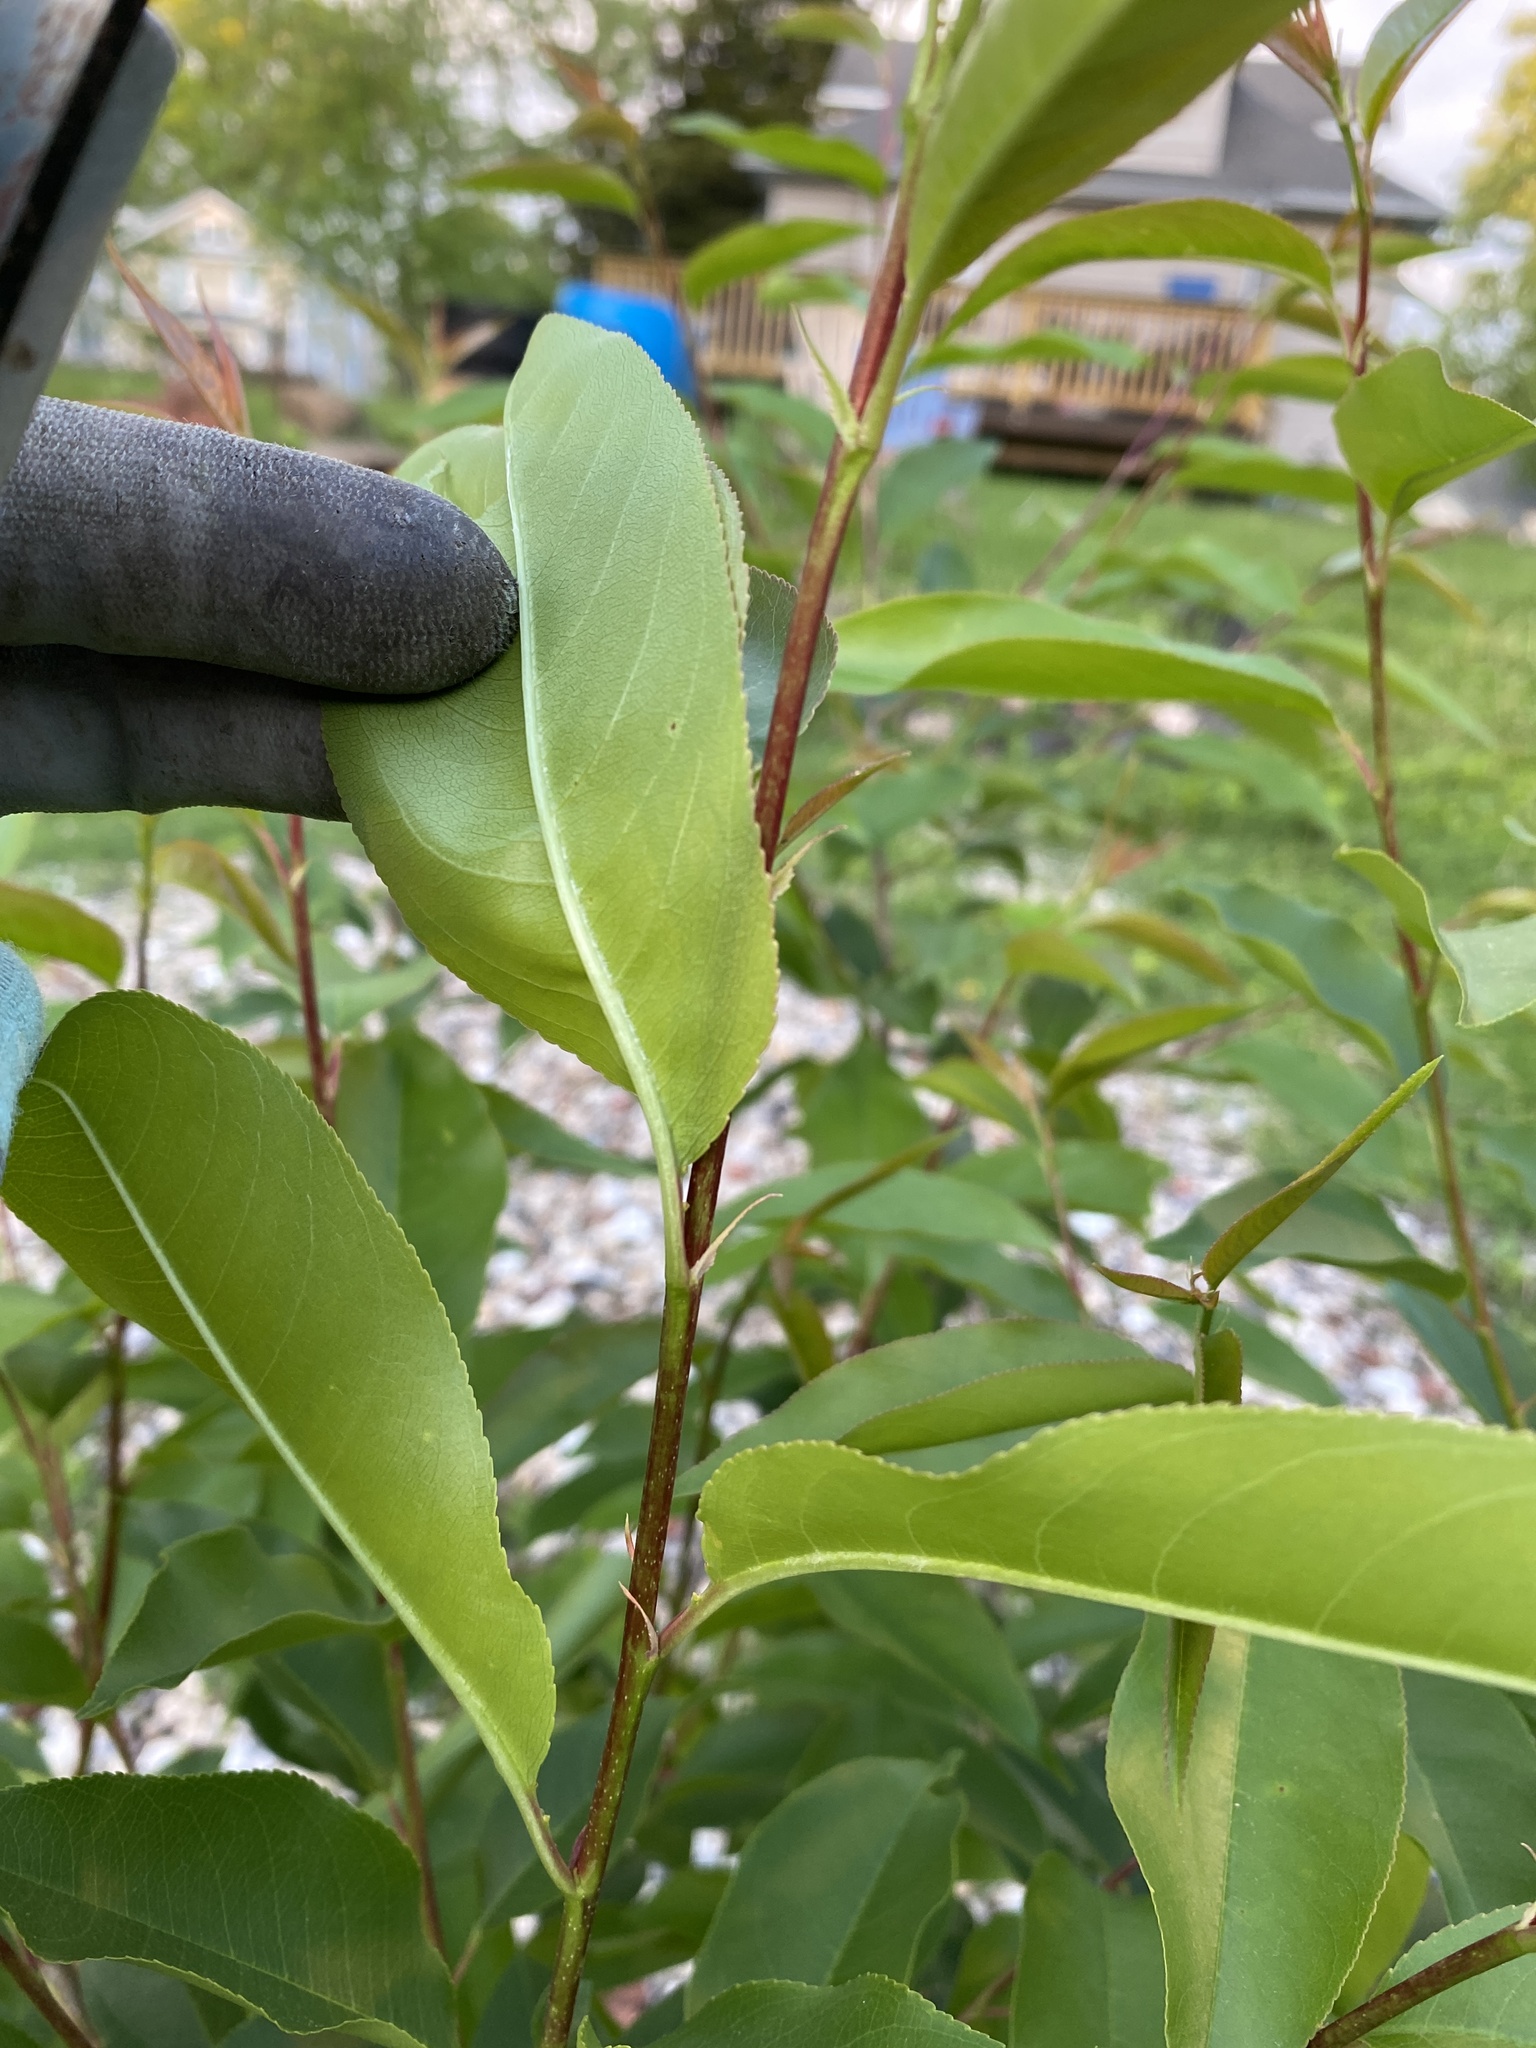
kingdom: Plantae
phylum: Tracheophyta
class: Magnoliopsida
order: Rosales
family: Rosaceae
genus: Prunus
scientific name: Prunus serotina
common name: Black cherry
